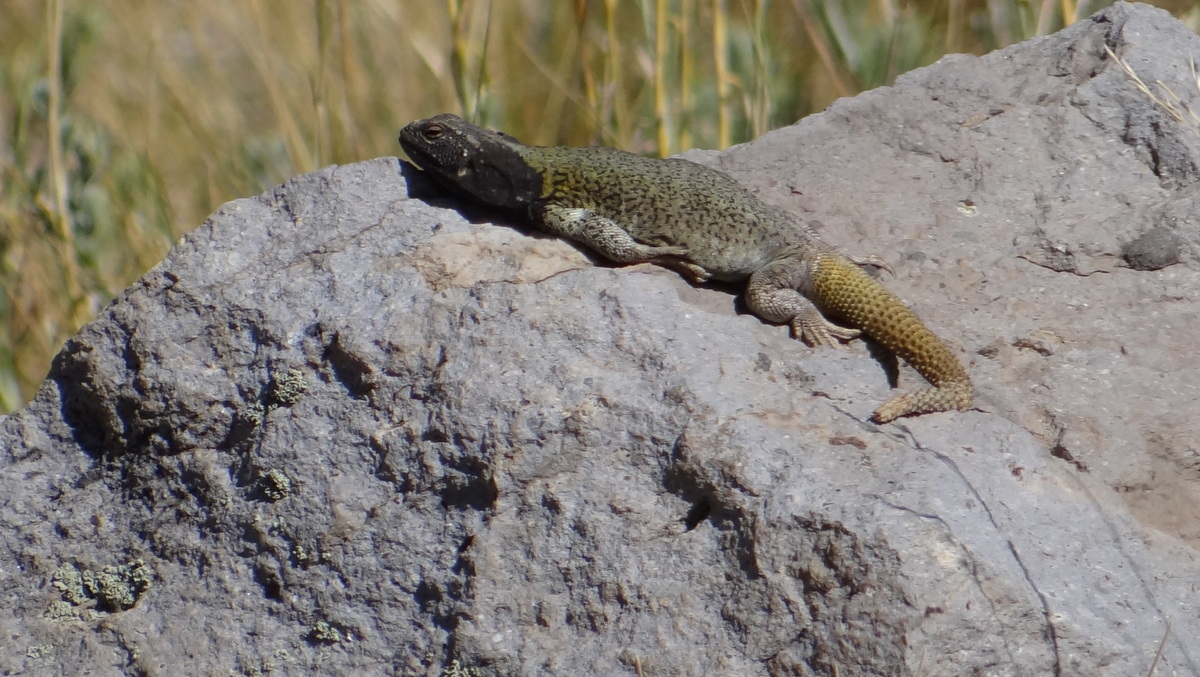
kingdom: Animalia
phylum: Chordata
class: Squamata
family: Liolaemidae
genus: Phymaturus
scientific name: Phymaturus verdugo
